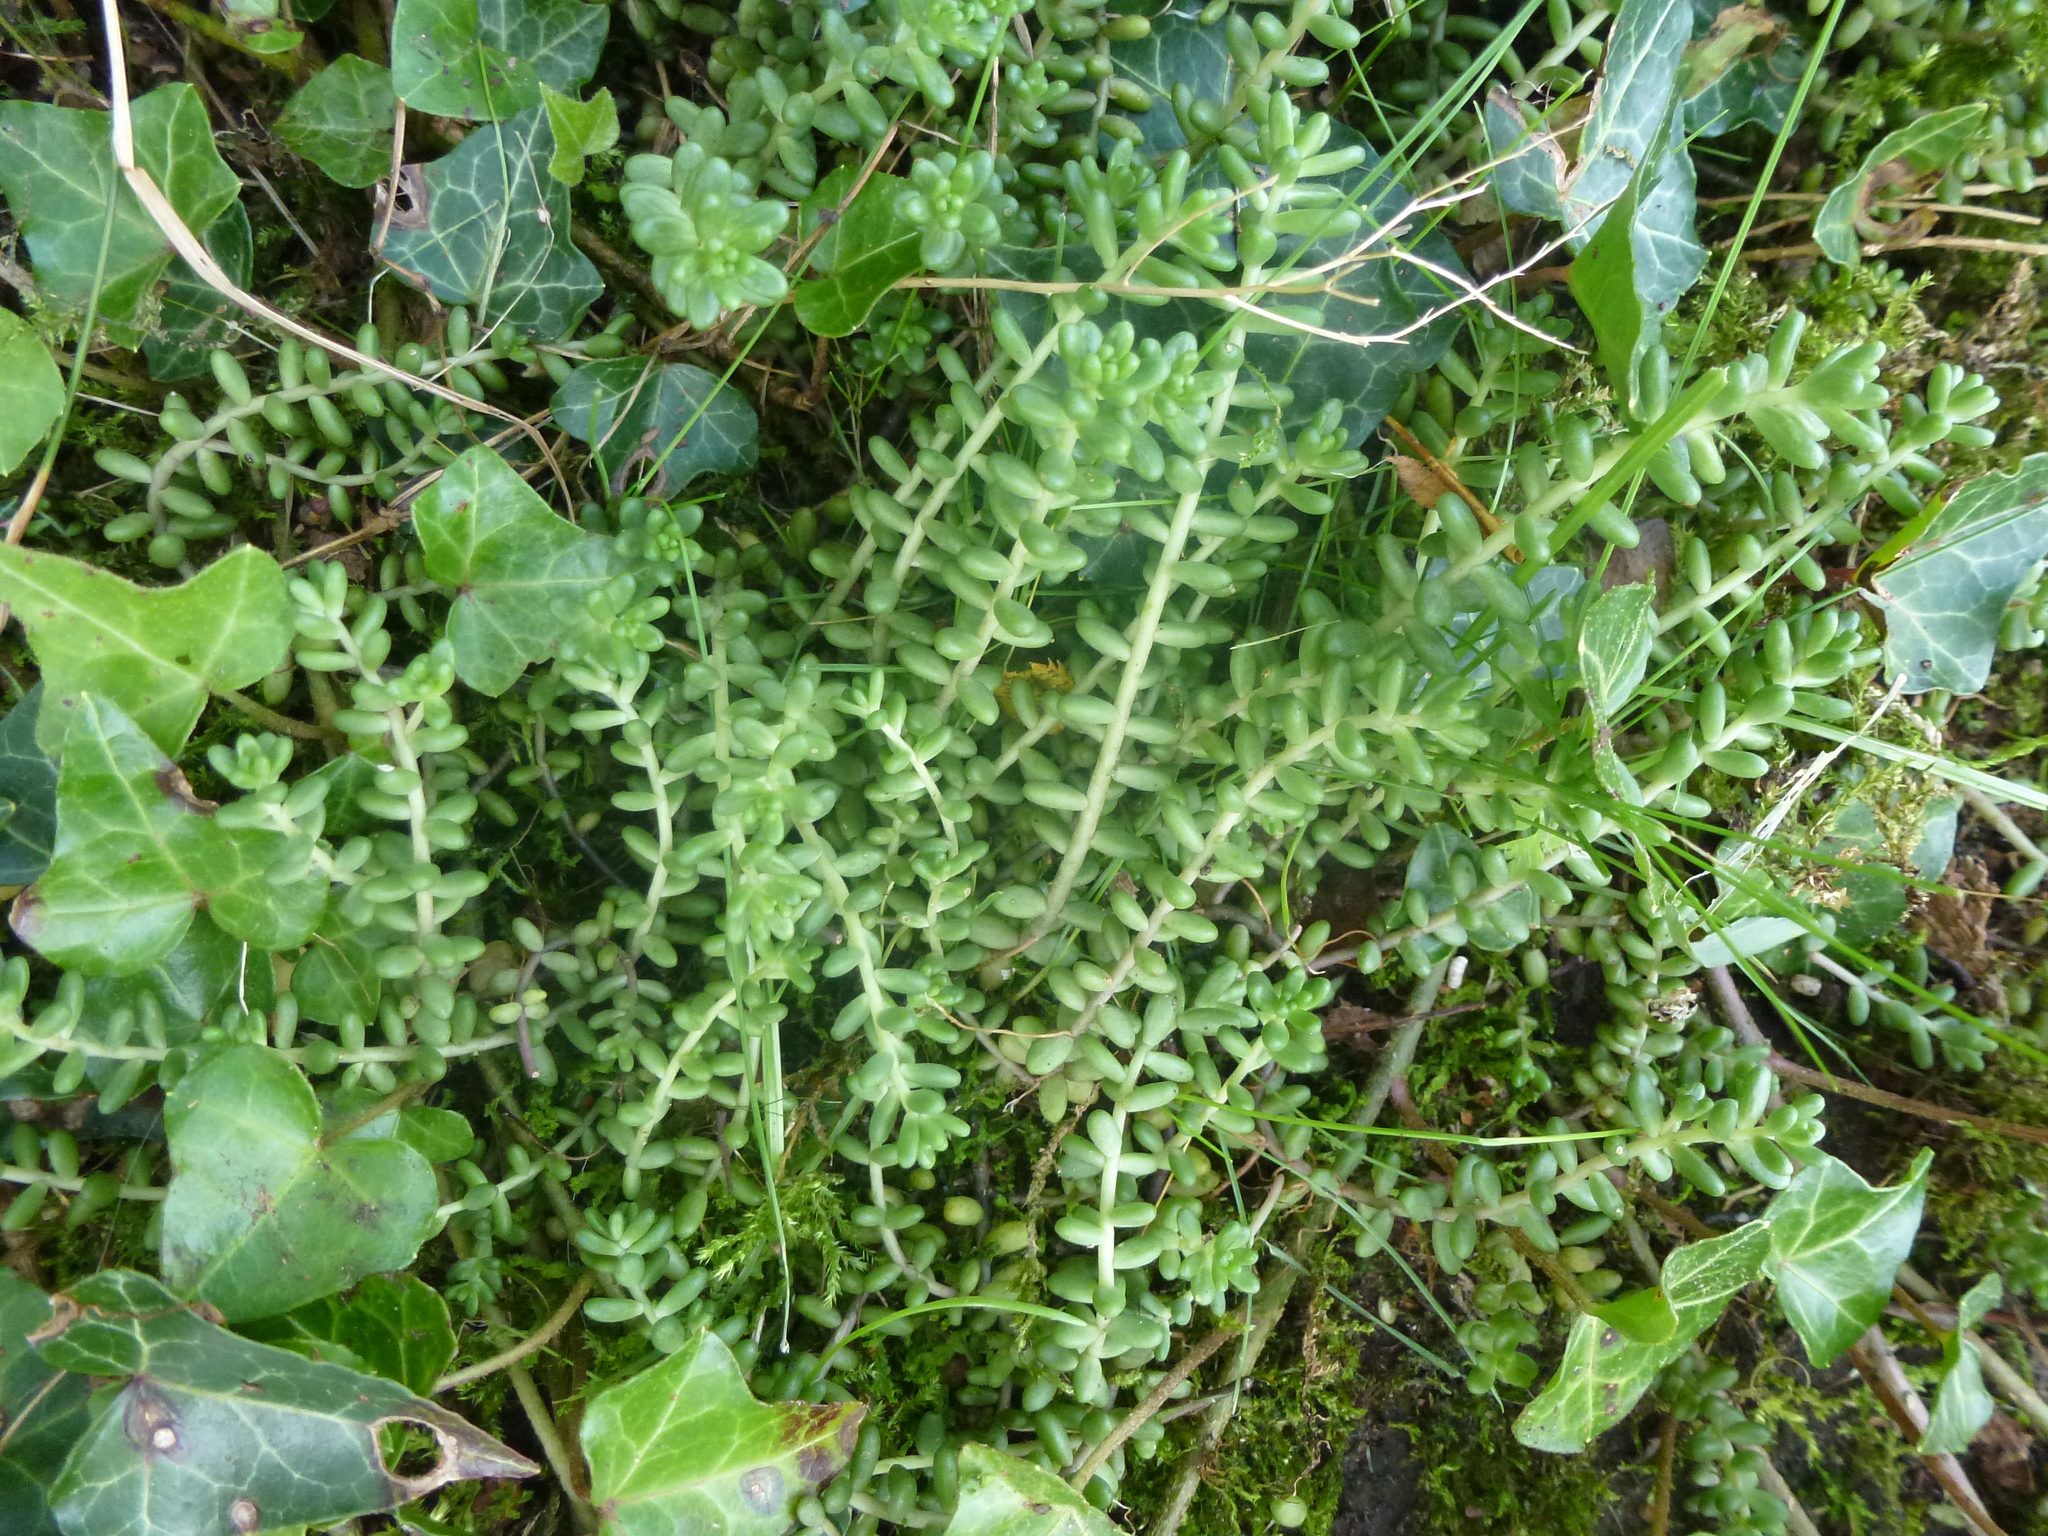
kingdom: Plantae
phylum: Tracheophyta
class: Magnoliopsida
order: Saxifragales
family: Crassulaceae
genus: Sedum
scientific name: Sedum album
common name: White stonecrop
